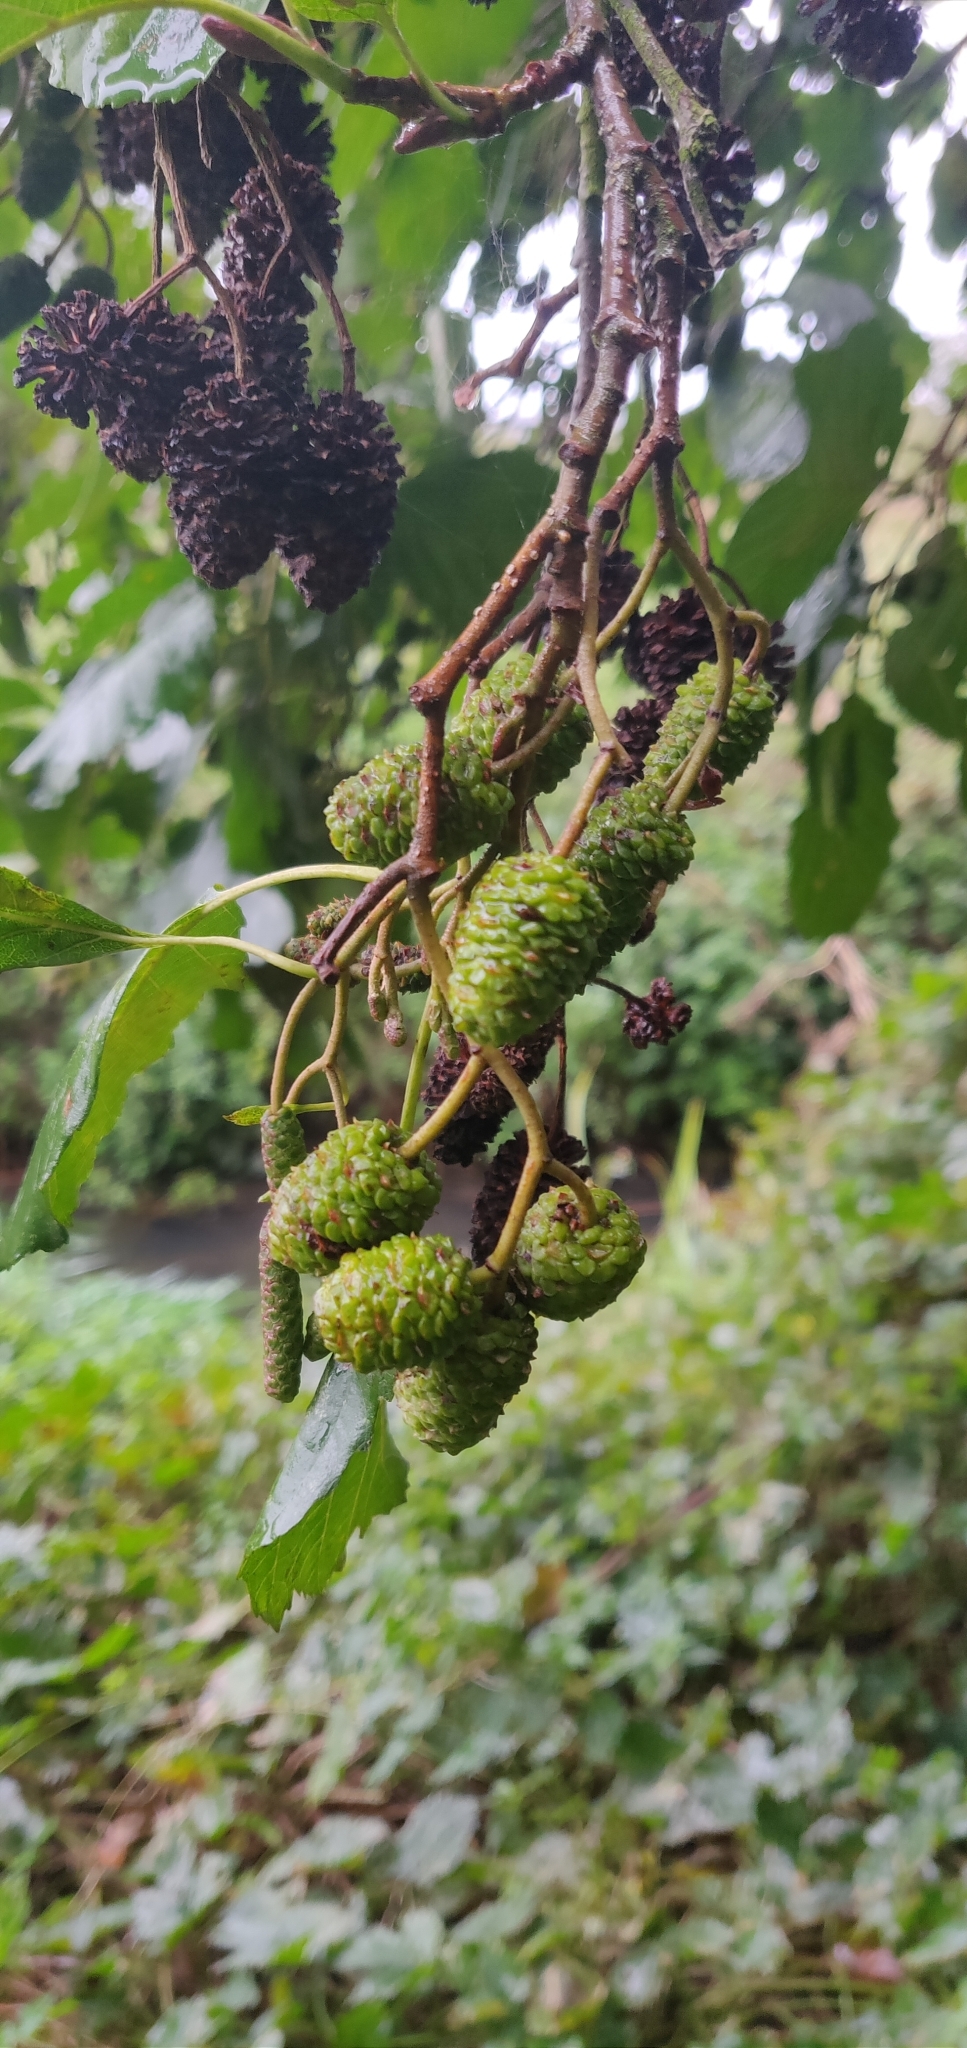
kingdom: Plantae
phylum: Tracheophyta
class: Magnoliopsida
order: Fagales
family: Betulaceae
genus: Alnus
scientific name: Alnus glutinosa
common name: Black alder
